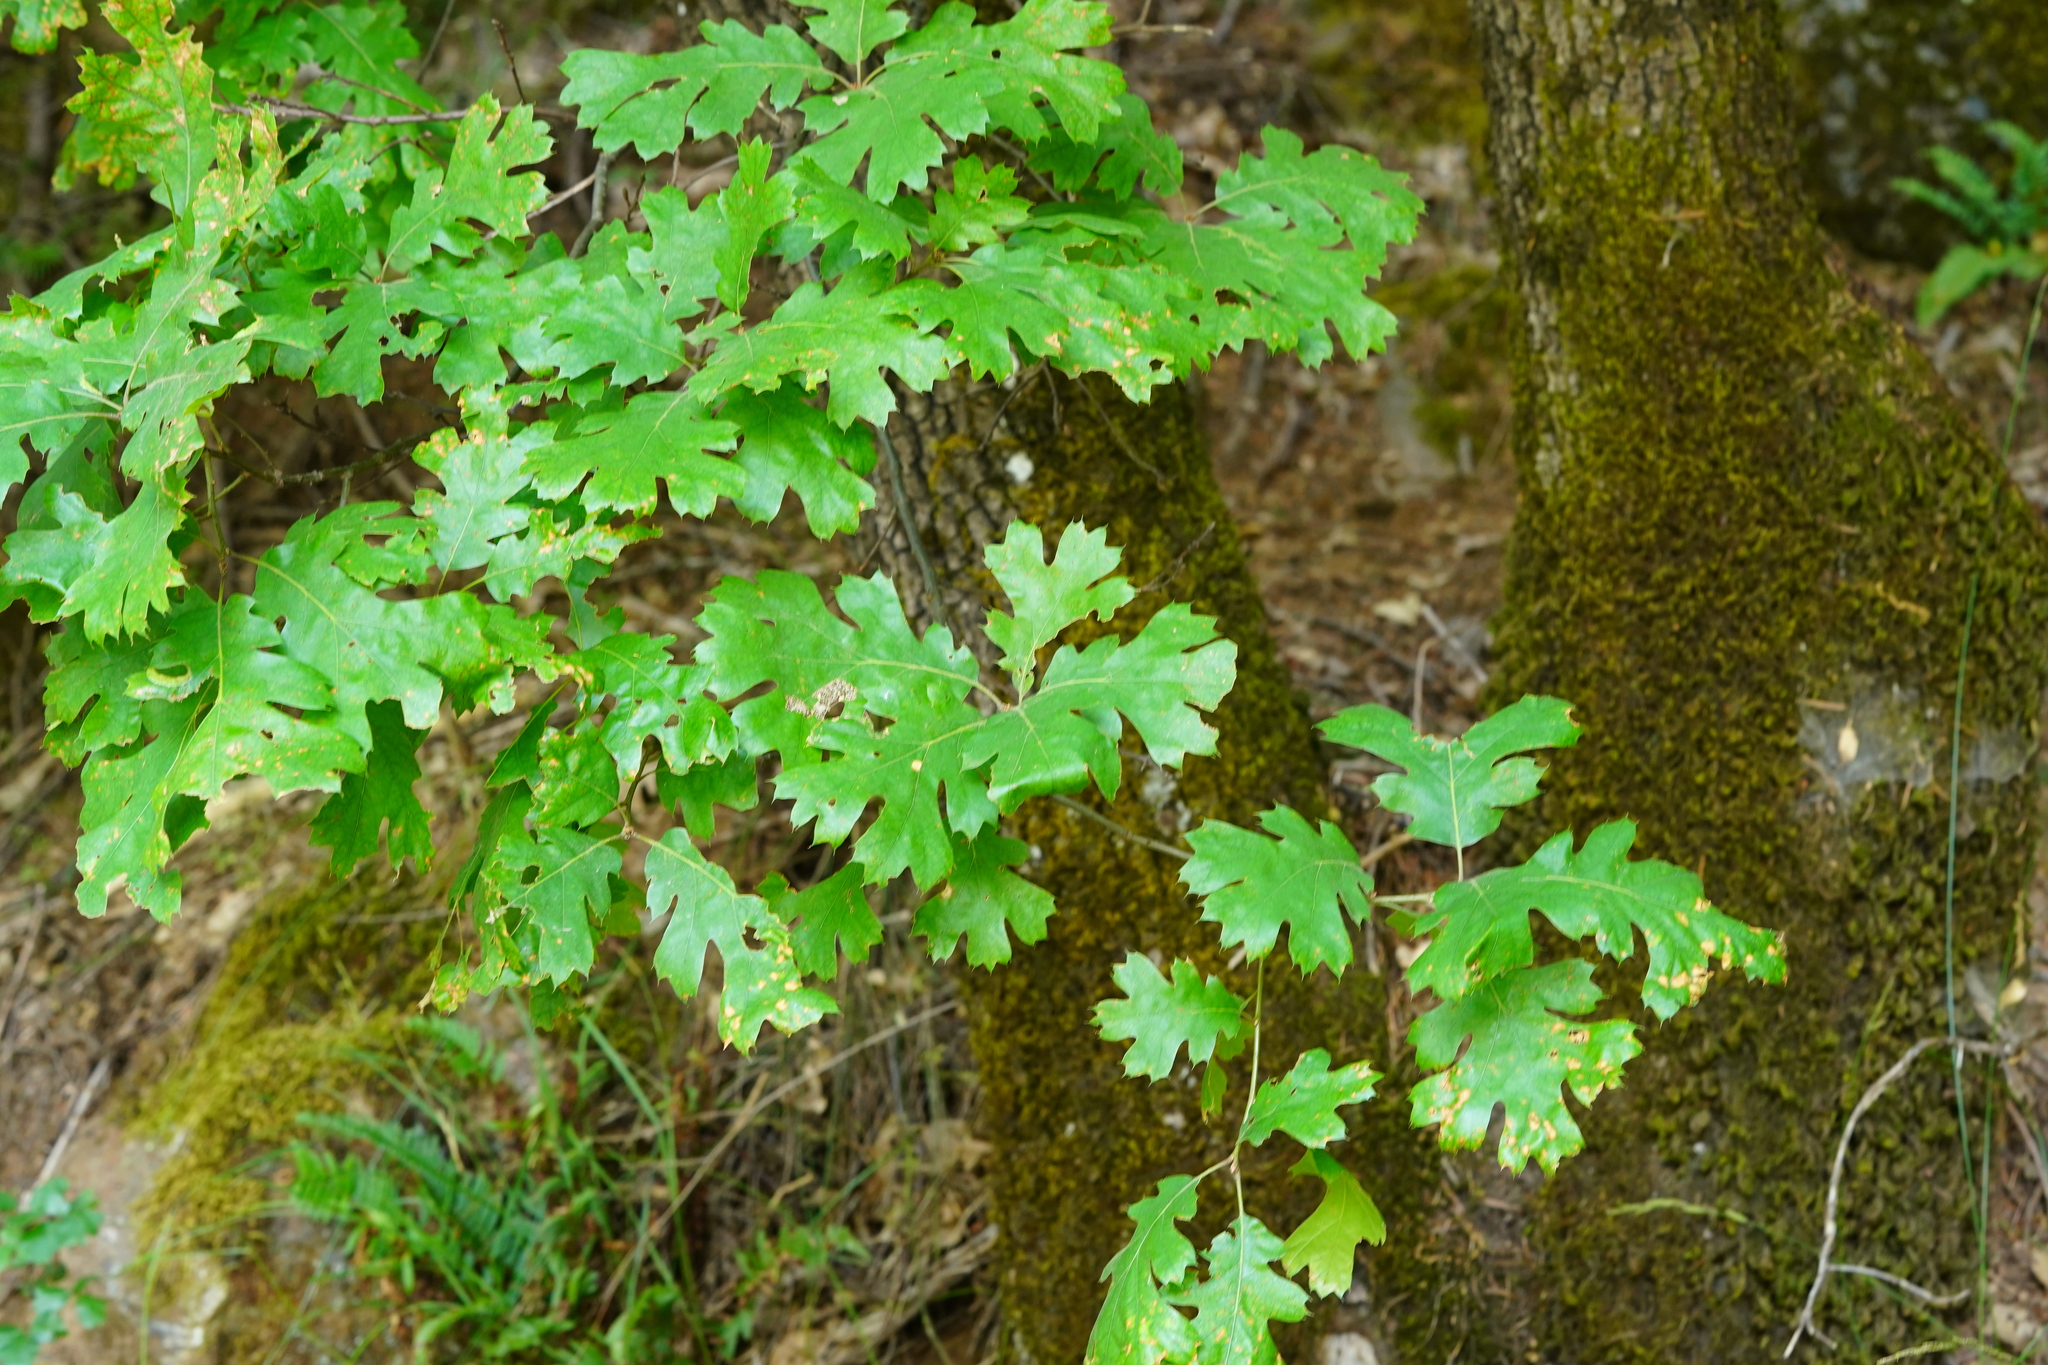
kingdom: Plantae
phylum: Tracheophyta
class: Magnoliopsida
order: Fagales
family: Fagaceae
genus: Quercus
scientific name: Quercus kelloggii
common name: California black oak
